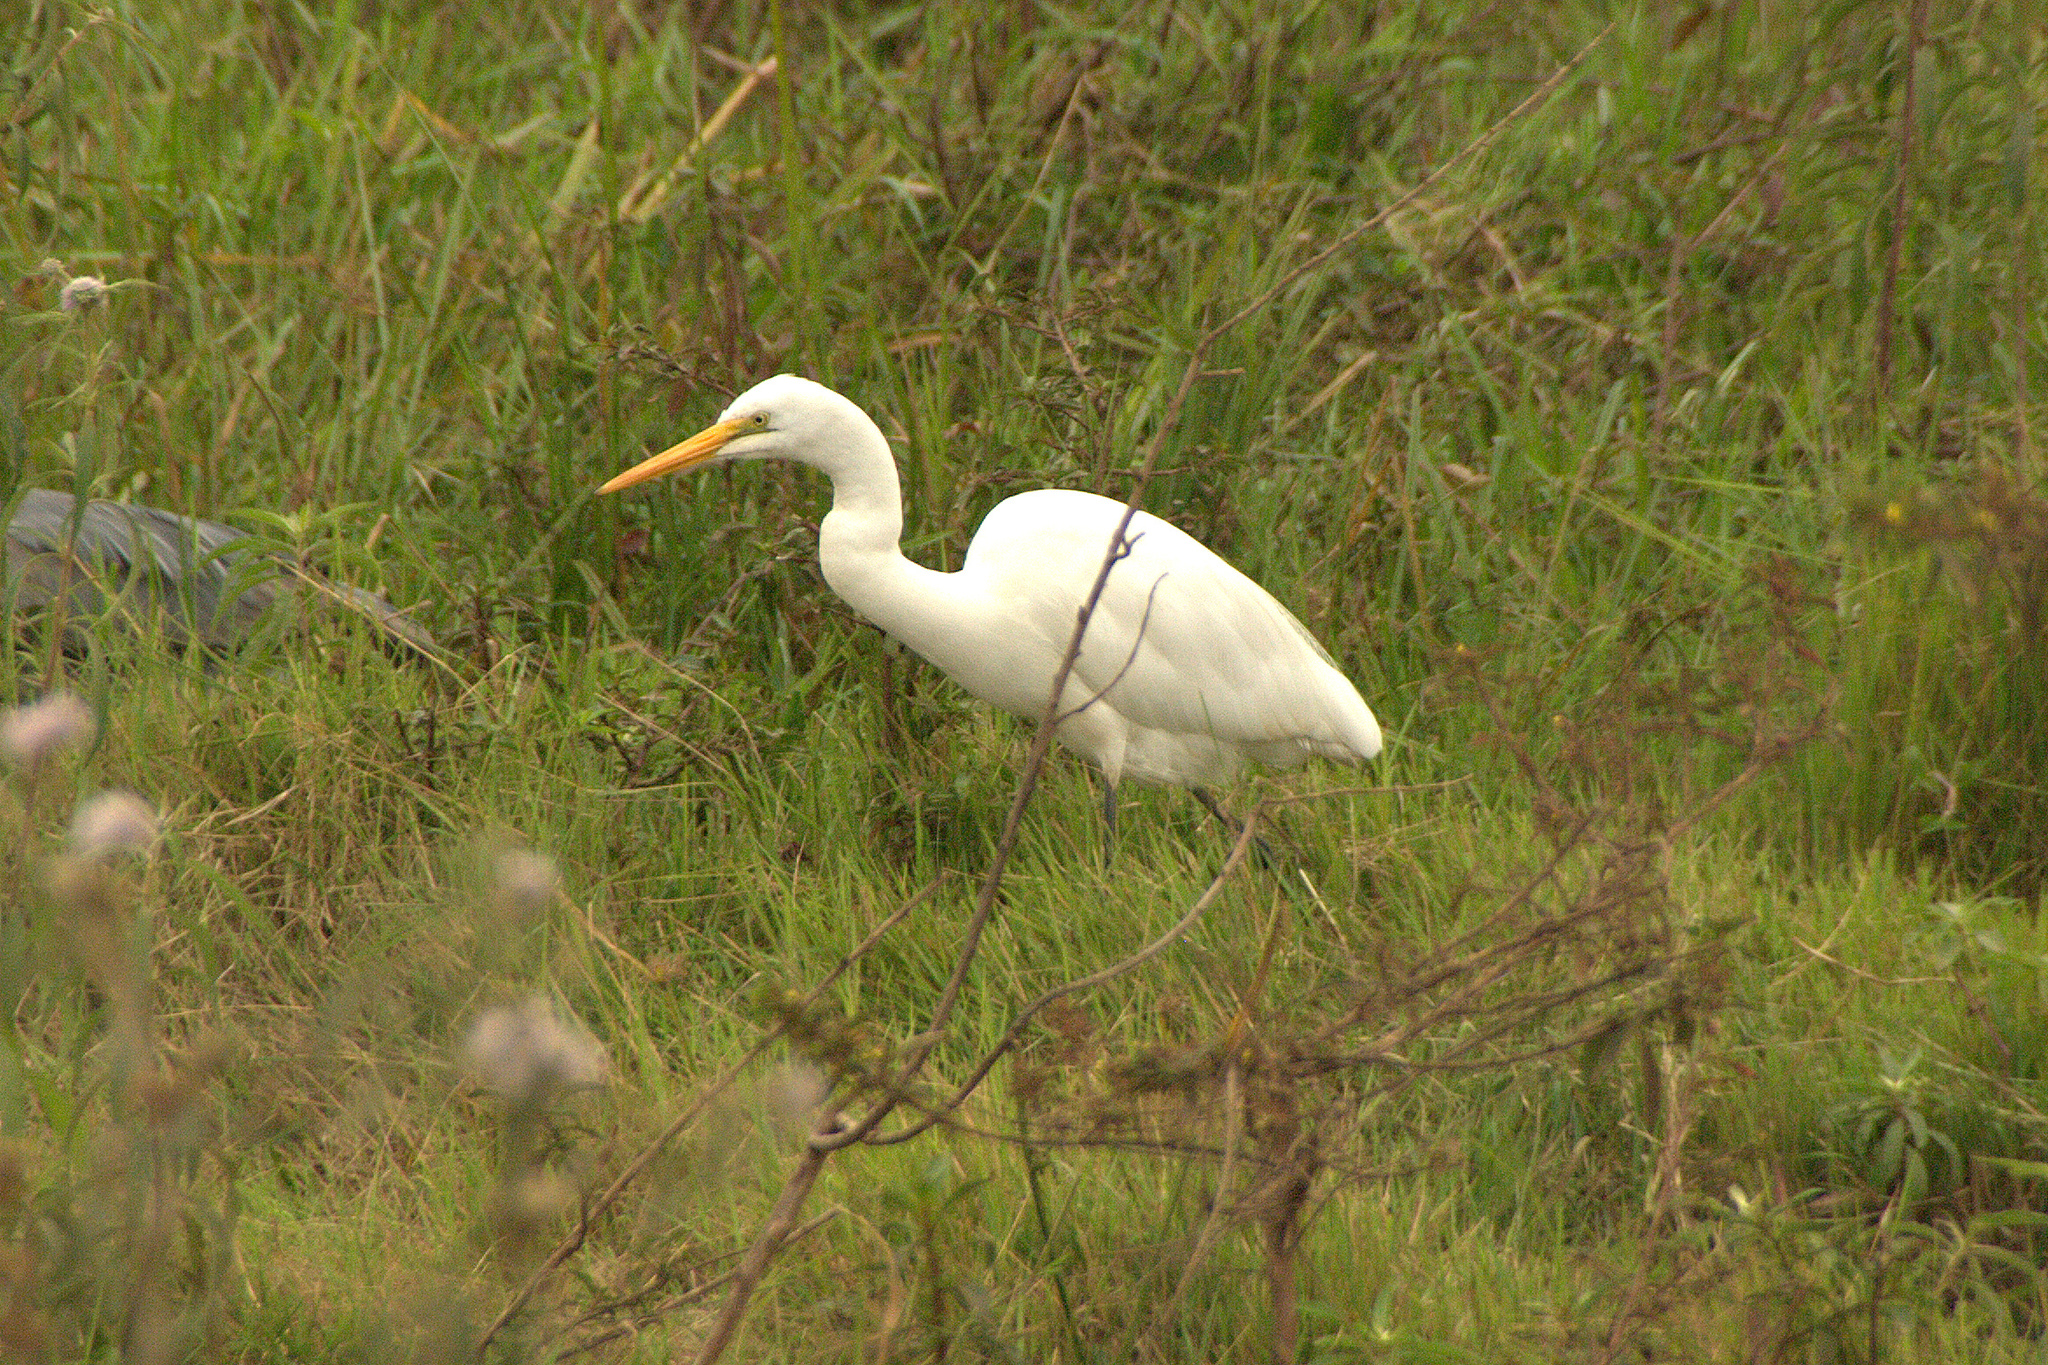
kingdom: Animalia
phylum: Chordata
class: Aves
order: Pelecaniformes
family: Ardeidae
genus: Ardea
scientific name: Ardea alba
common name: Great egret
